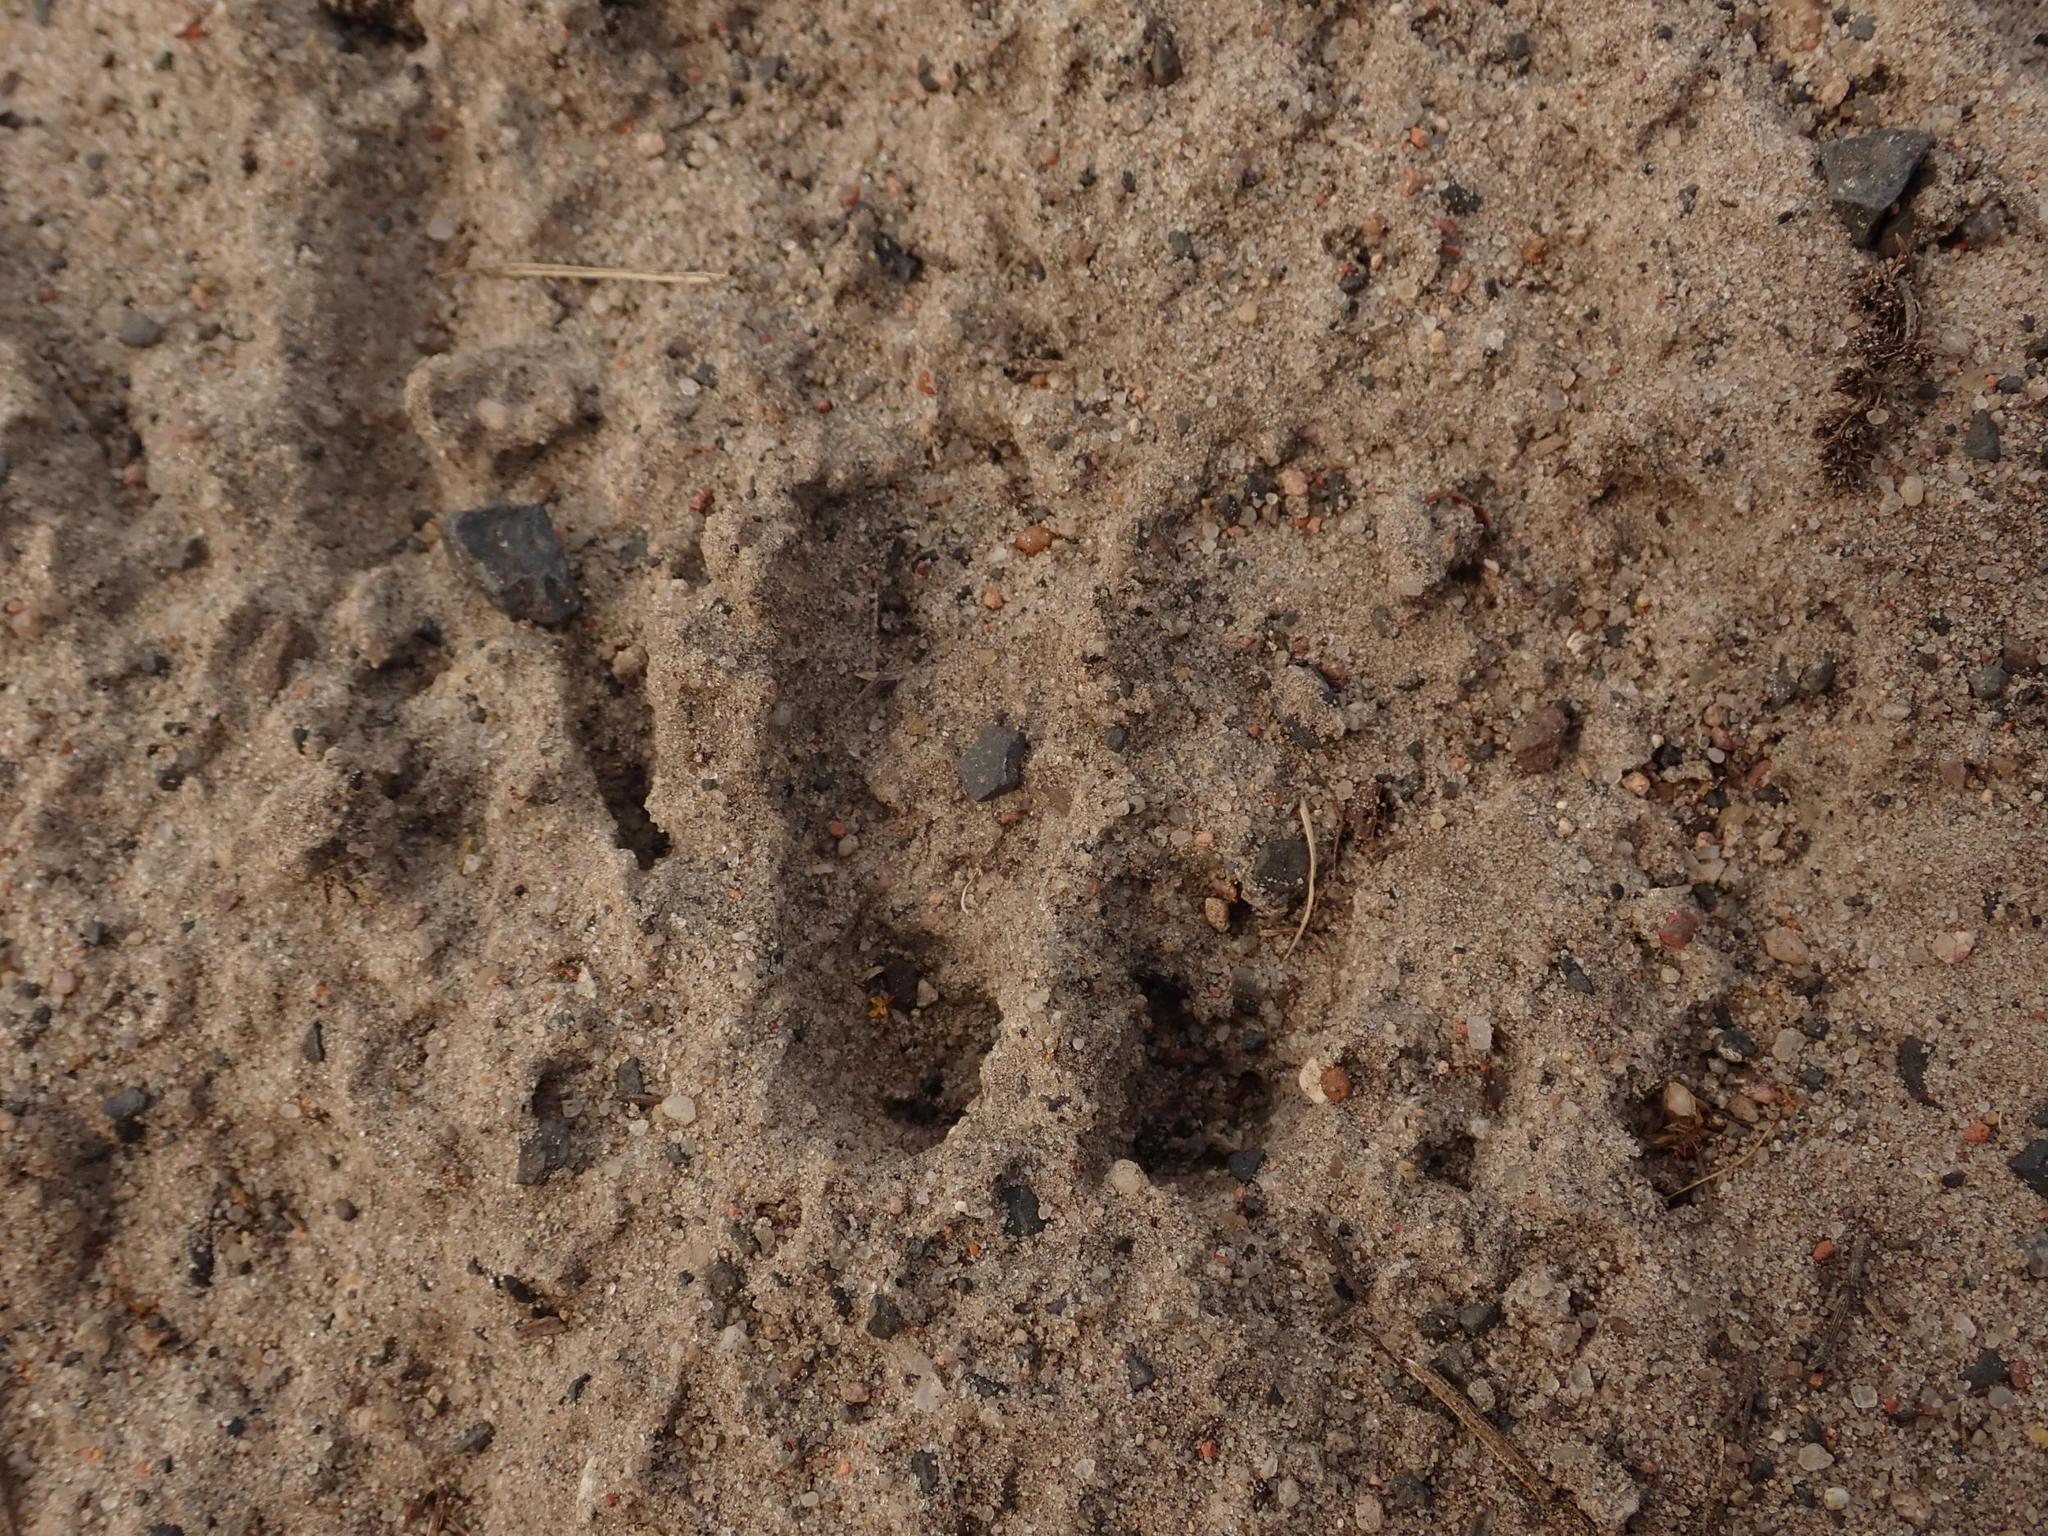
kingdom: Animalia
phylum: Chordata
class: Mammalia
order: Artiodactyla
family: Cervidae
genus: Cervus
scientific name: Cervus elaphus
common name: Red deer
